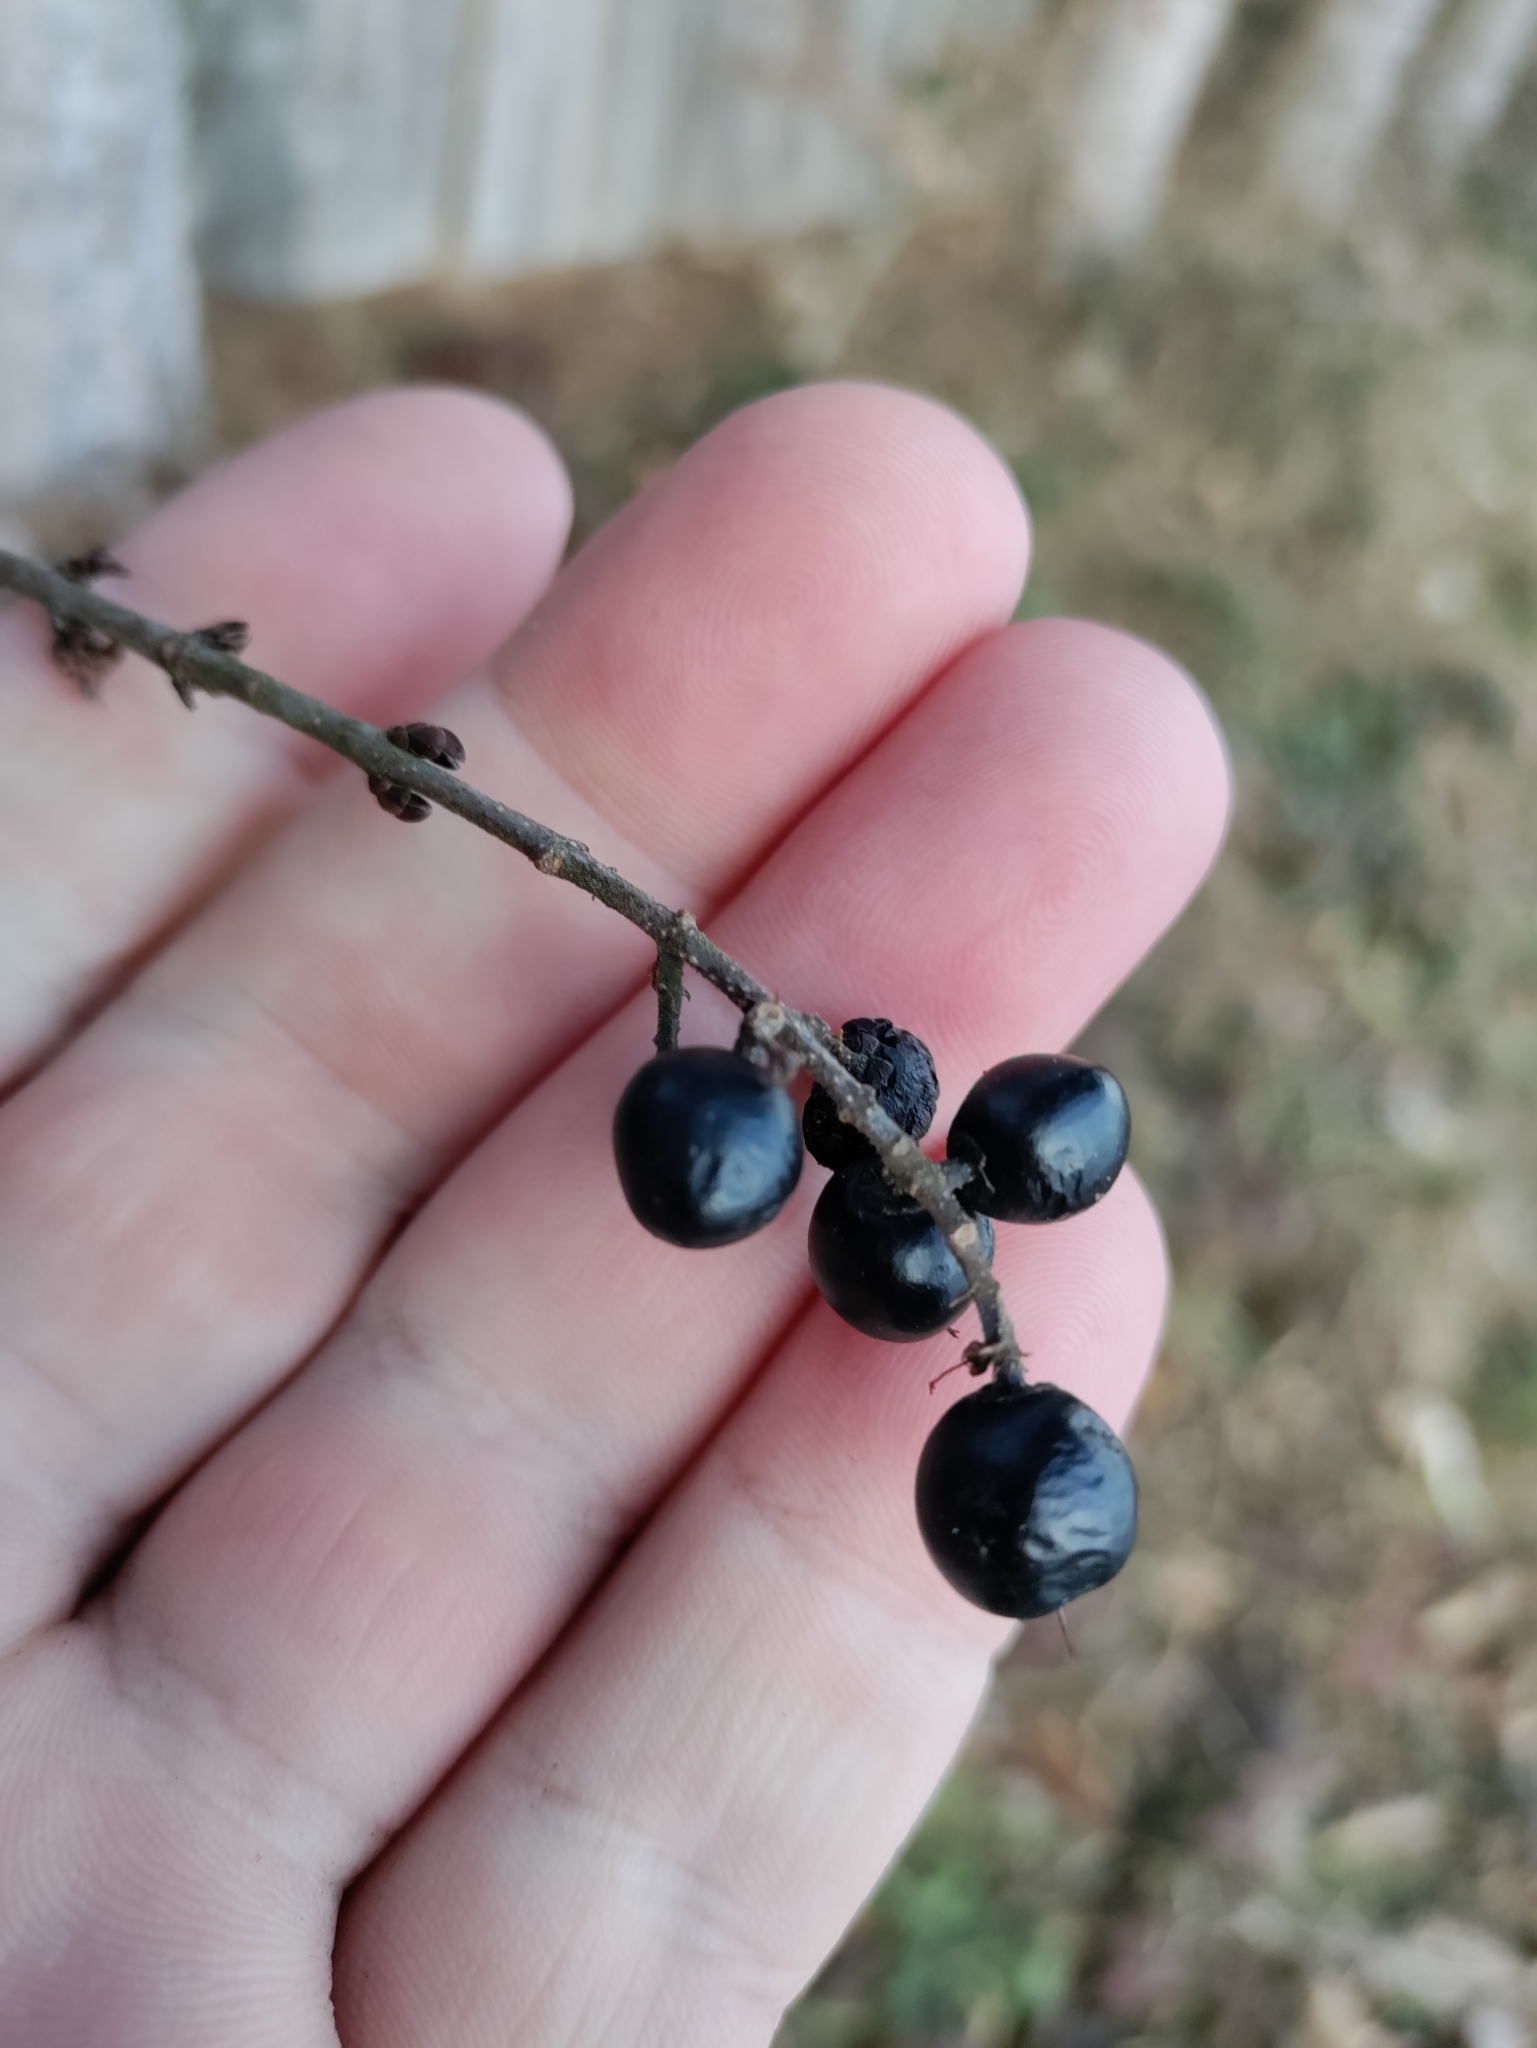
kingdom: Plantae
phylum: Tracheophyta
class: Magnoliopsida
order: Lamiales
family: Oleaceae
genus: Ligustrum
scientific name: Ligustrum vulgare
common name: Wild privet
